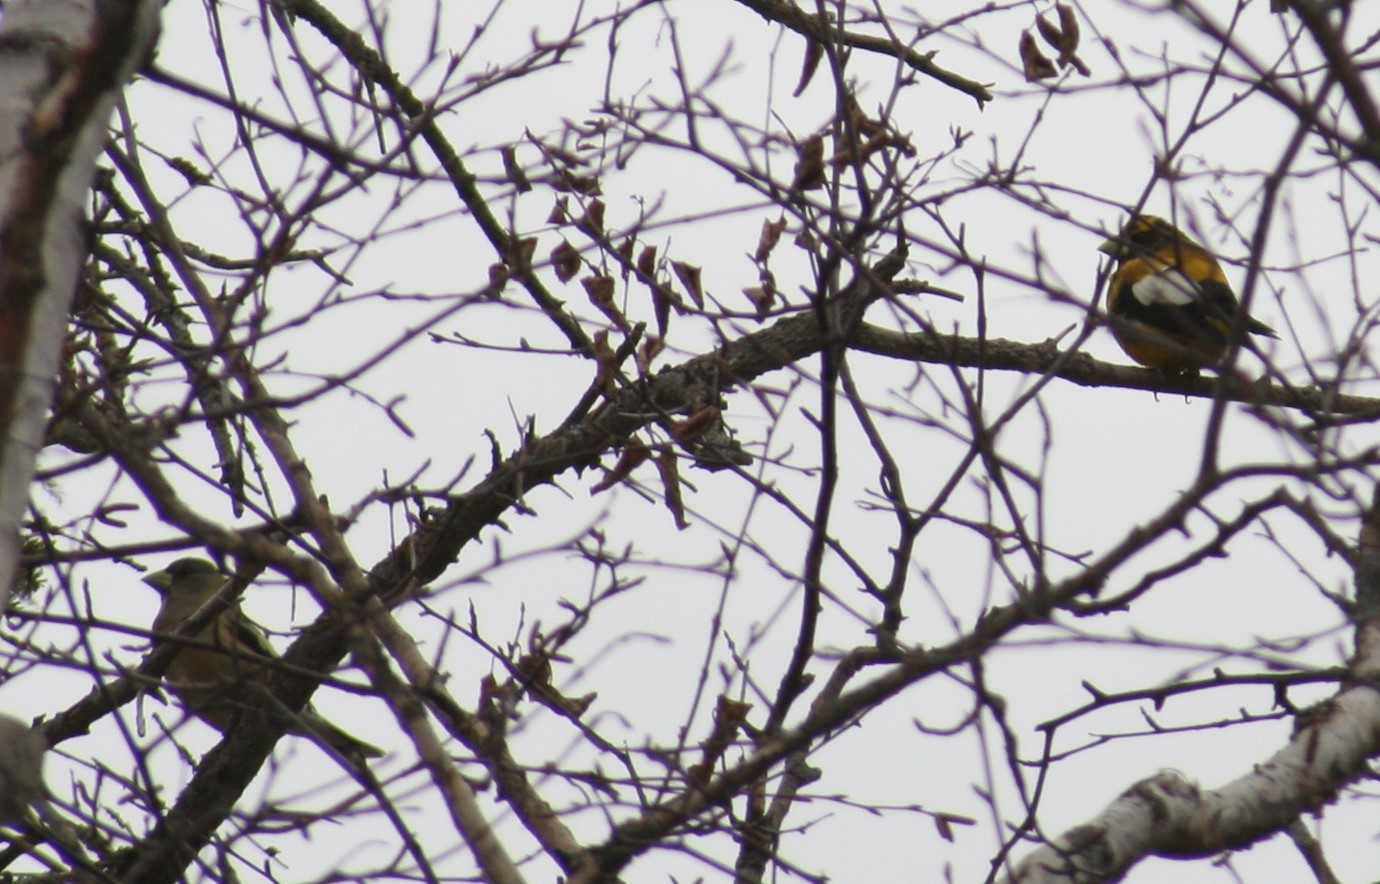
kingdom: Animalia
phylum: Chordata
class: Aves
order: Passeriformes
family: Fringillidae
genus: Hesperiphona
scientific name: Hesperiphona vespertina
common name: Evening grosbeak
